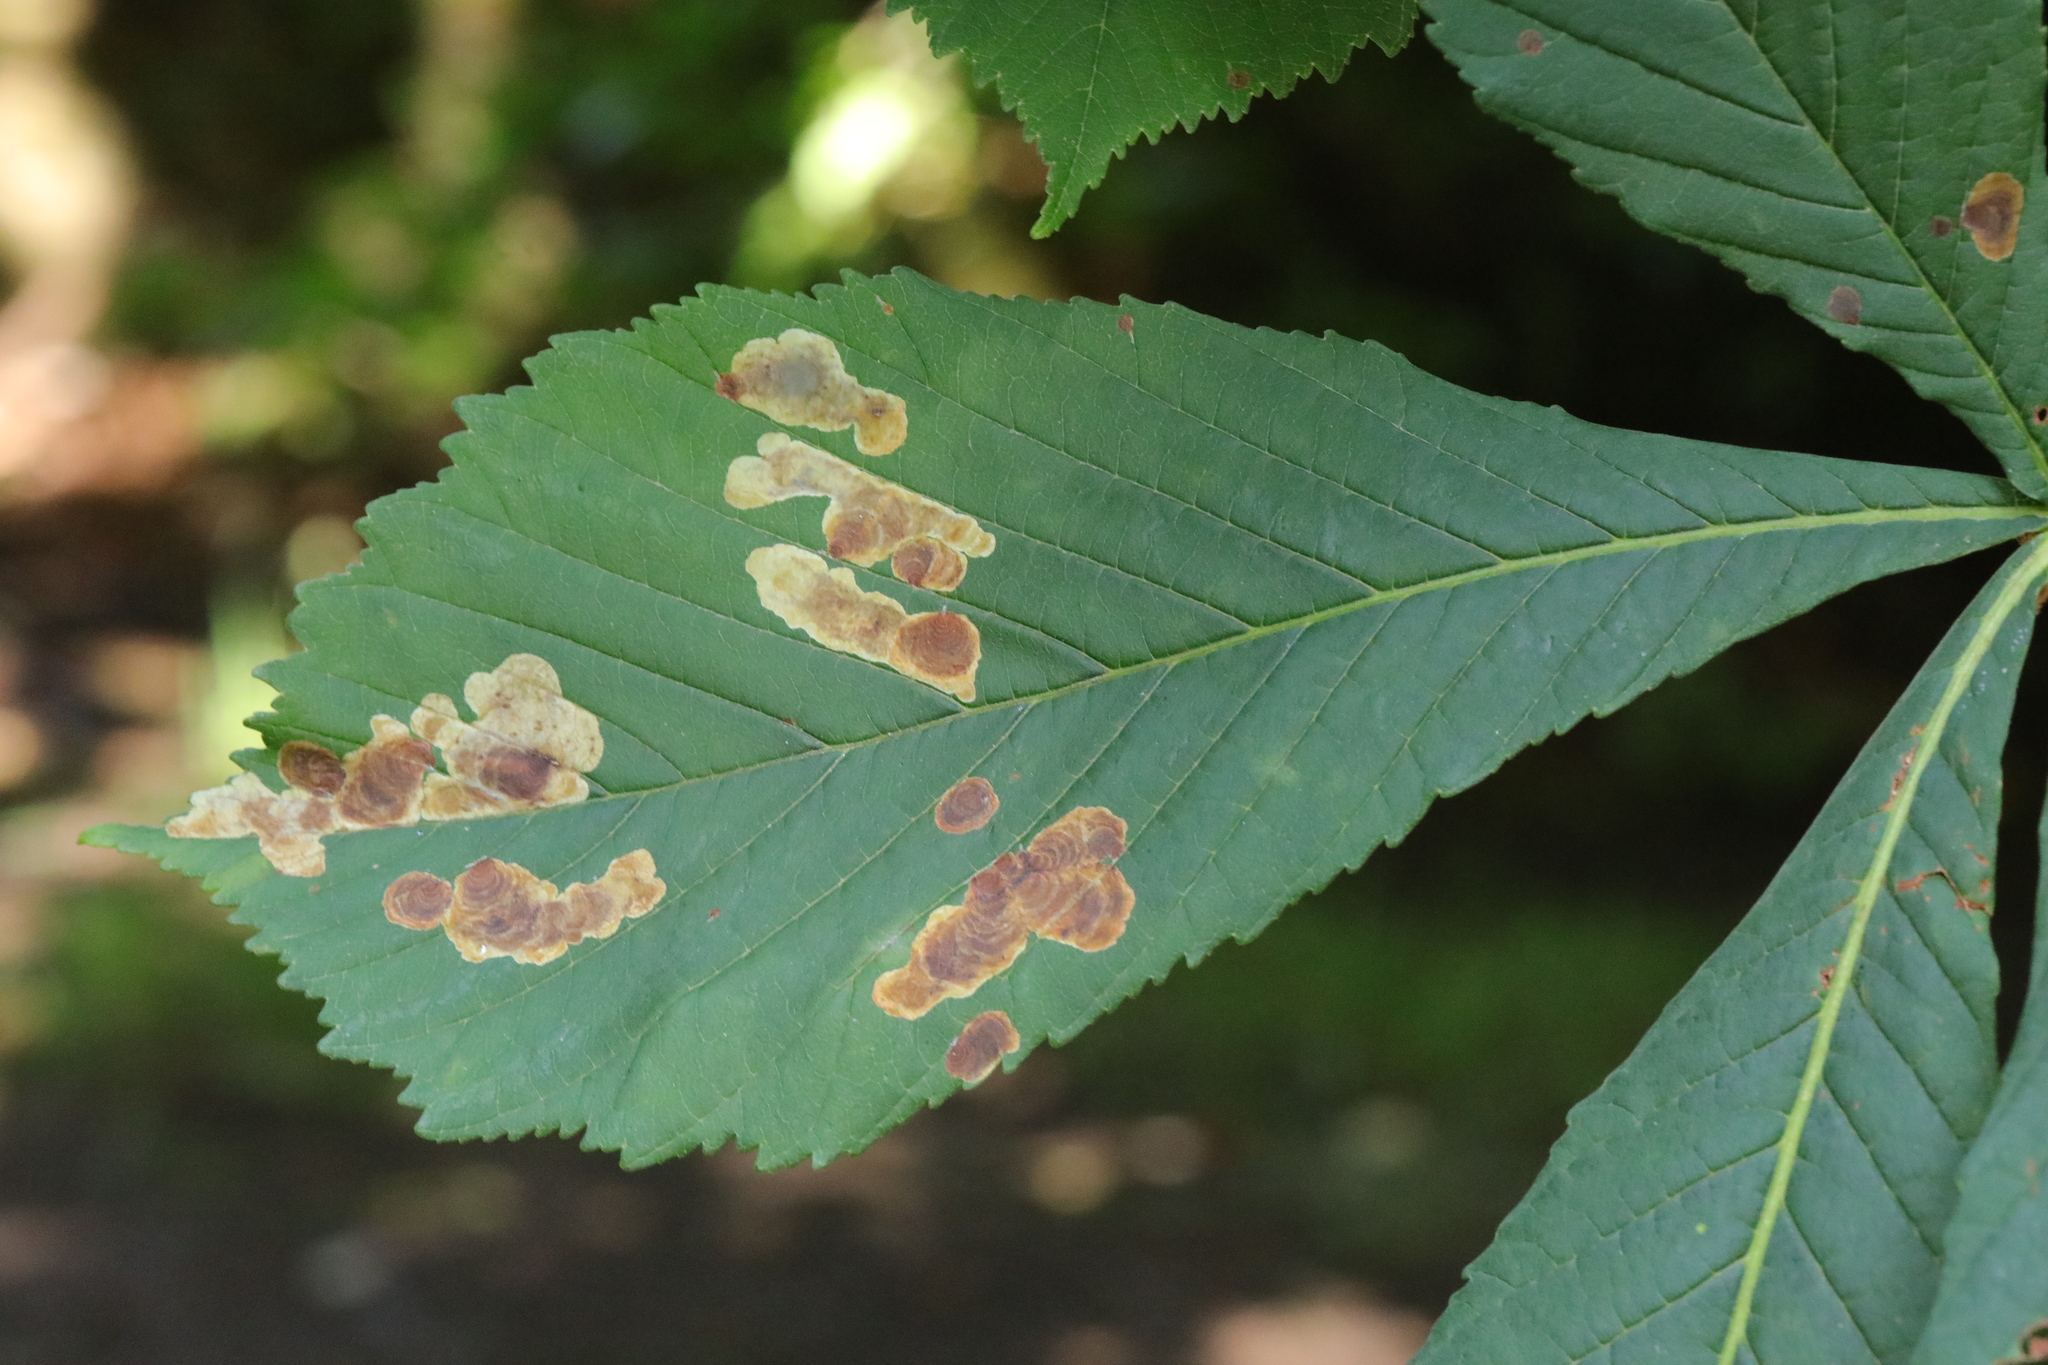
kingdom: Animalia
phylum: Arthropoda
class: Insecta
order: Lepidoptera
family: Gracillariidae
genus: Cameraria
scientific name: Cameraria ohridella
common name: Horse-chestnut leaf-miner
